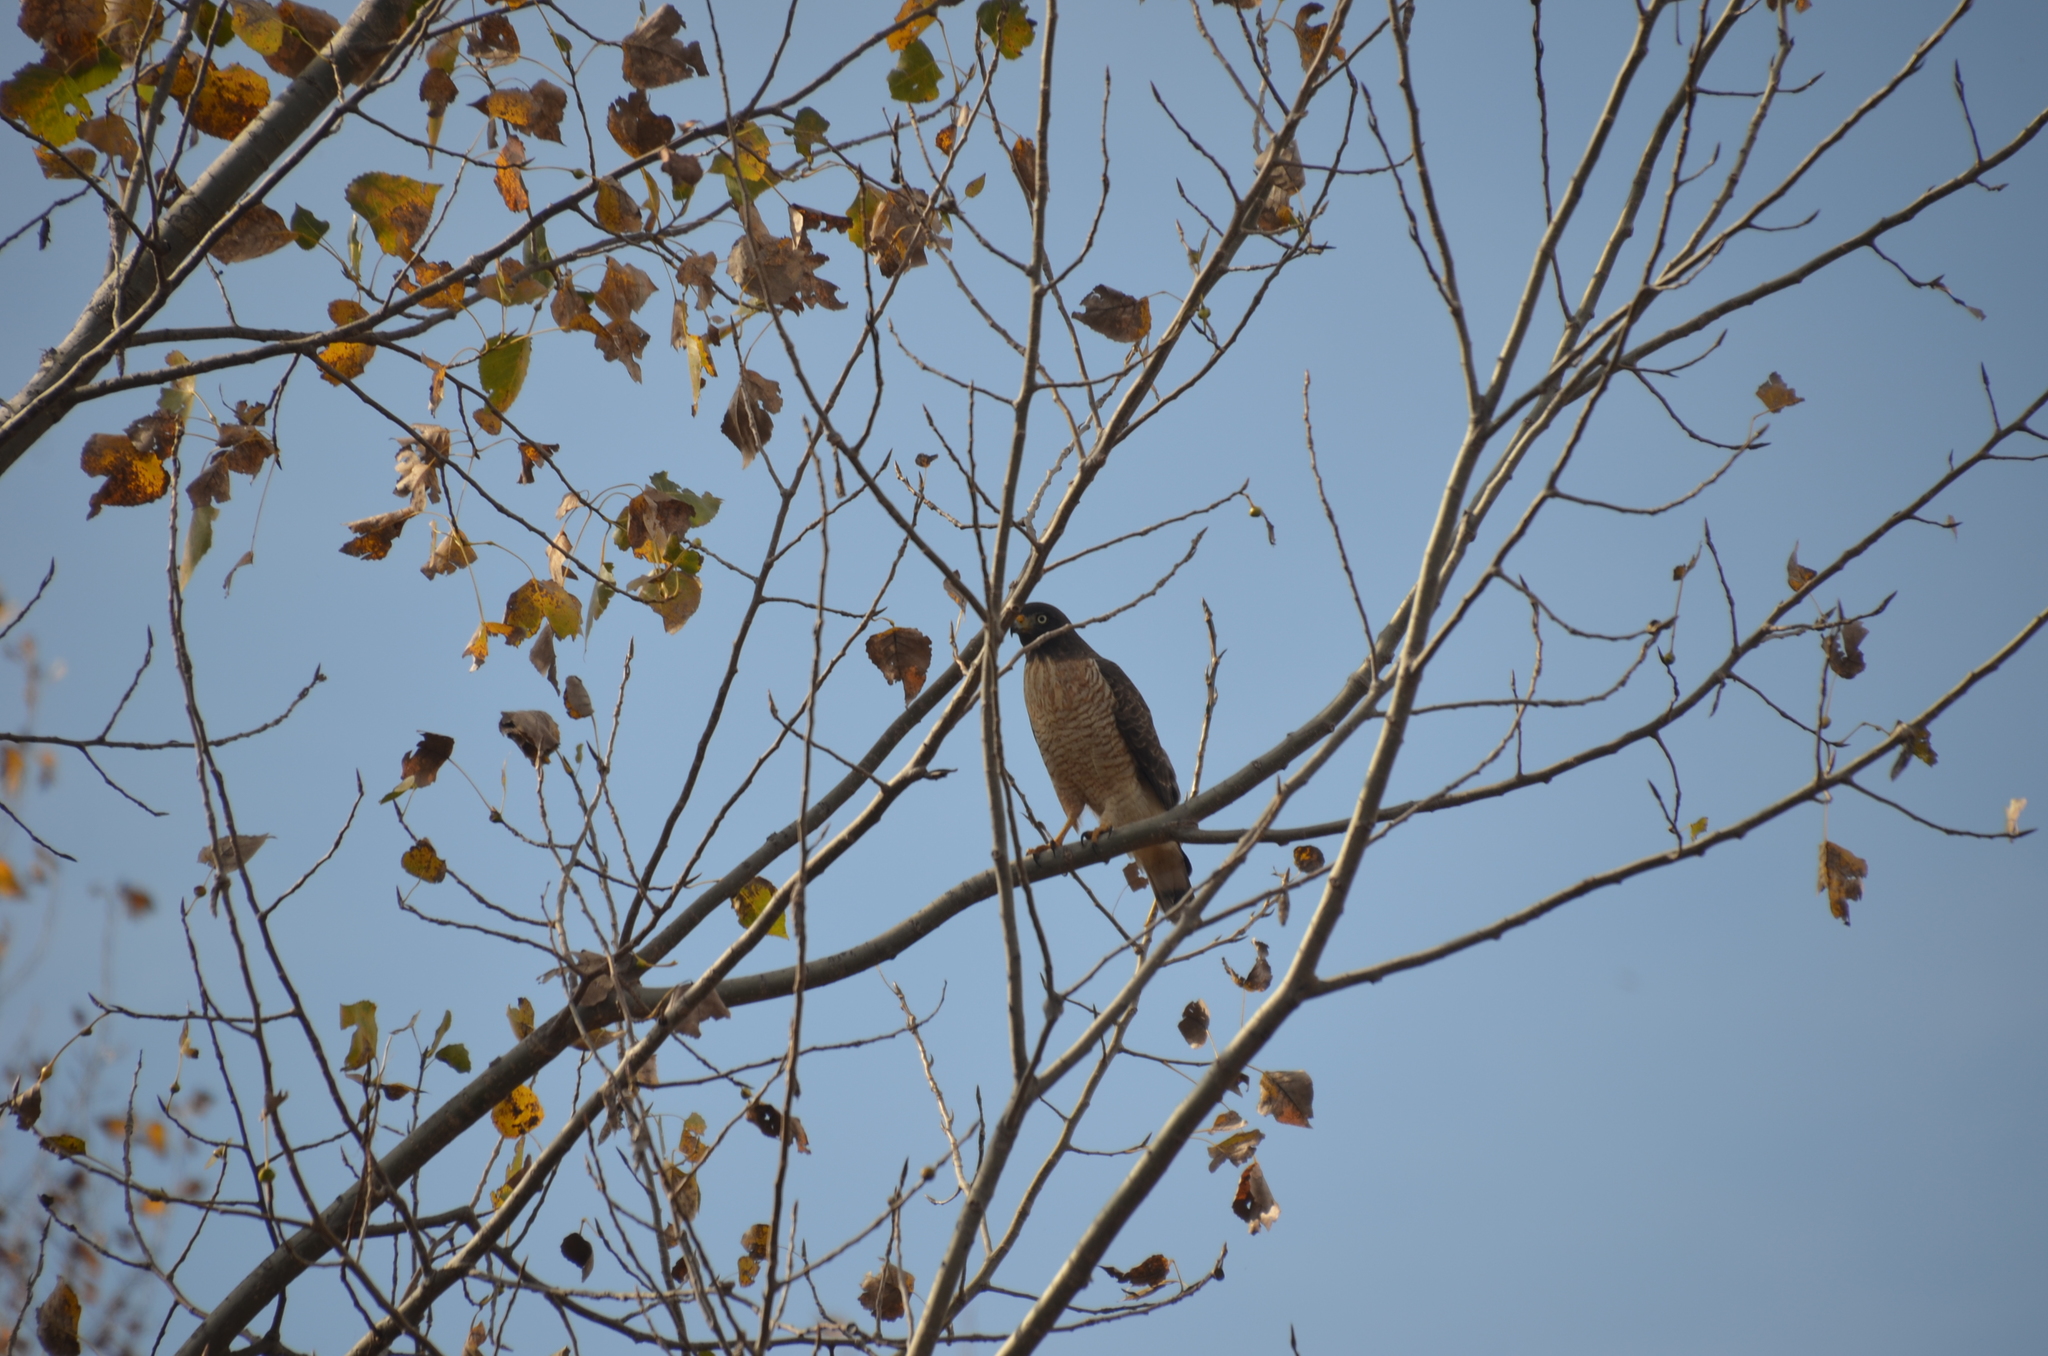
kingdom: Animalia
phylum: Chordata
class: Aves
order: Accipitriformes
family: Accipitridae
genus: Rupornis
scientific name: Rupornis magnirostris
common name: Roadside hawk
